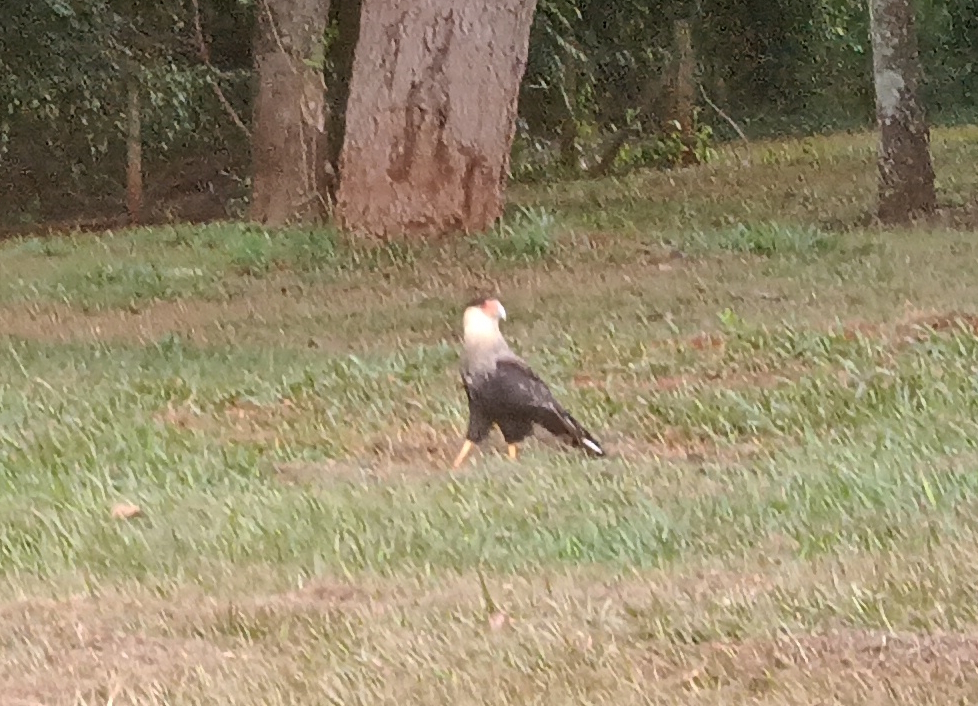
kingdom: Animalia
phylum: Chordata
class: Aves
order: Falconiformes
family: Falconidae
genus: Caracara
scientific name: Caracara plancus
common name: Southern caracara
